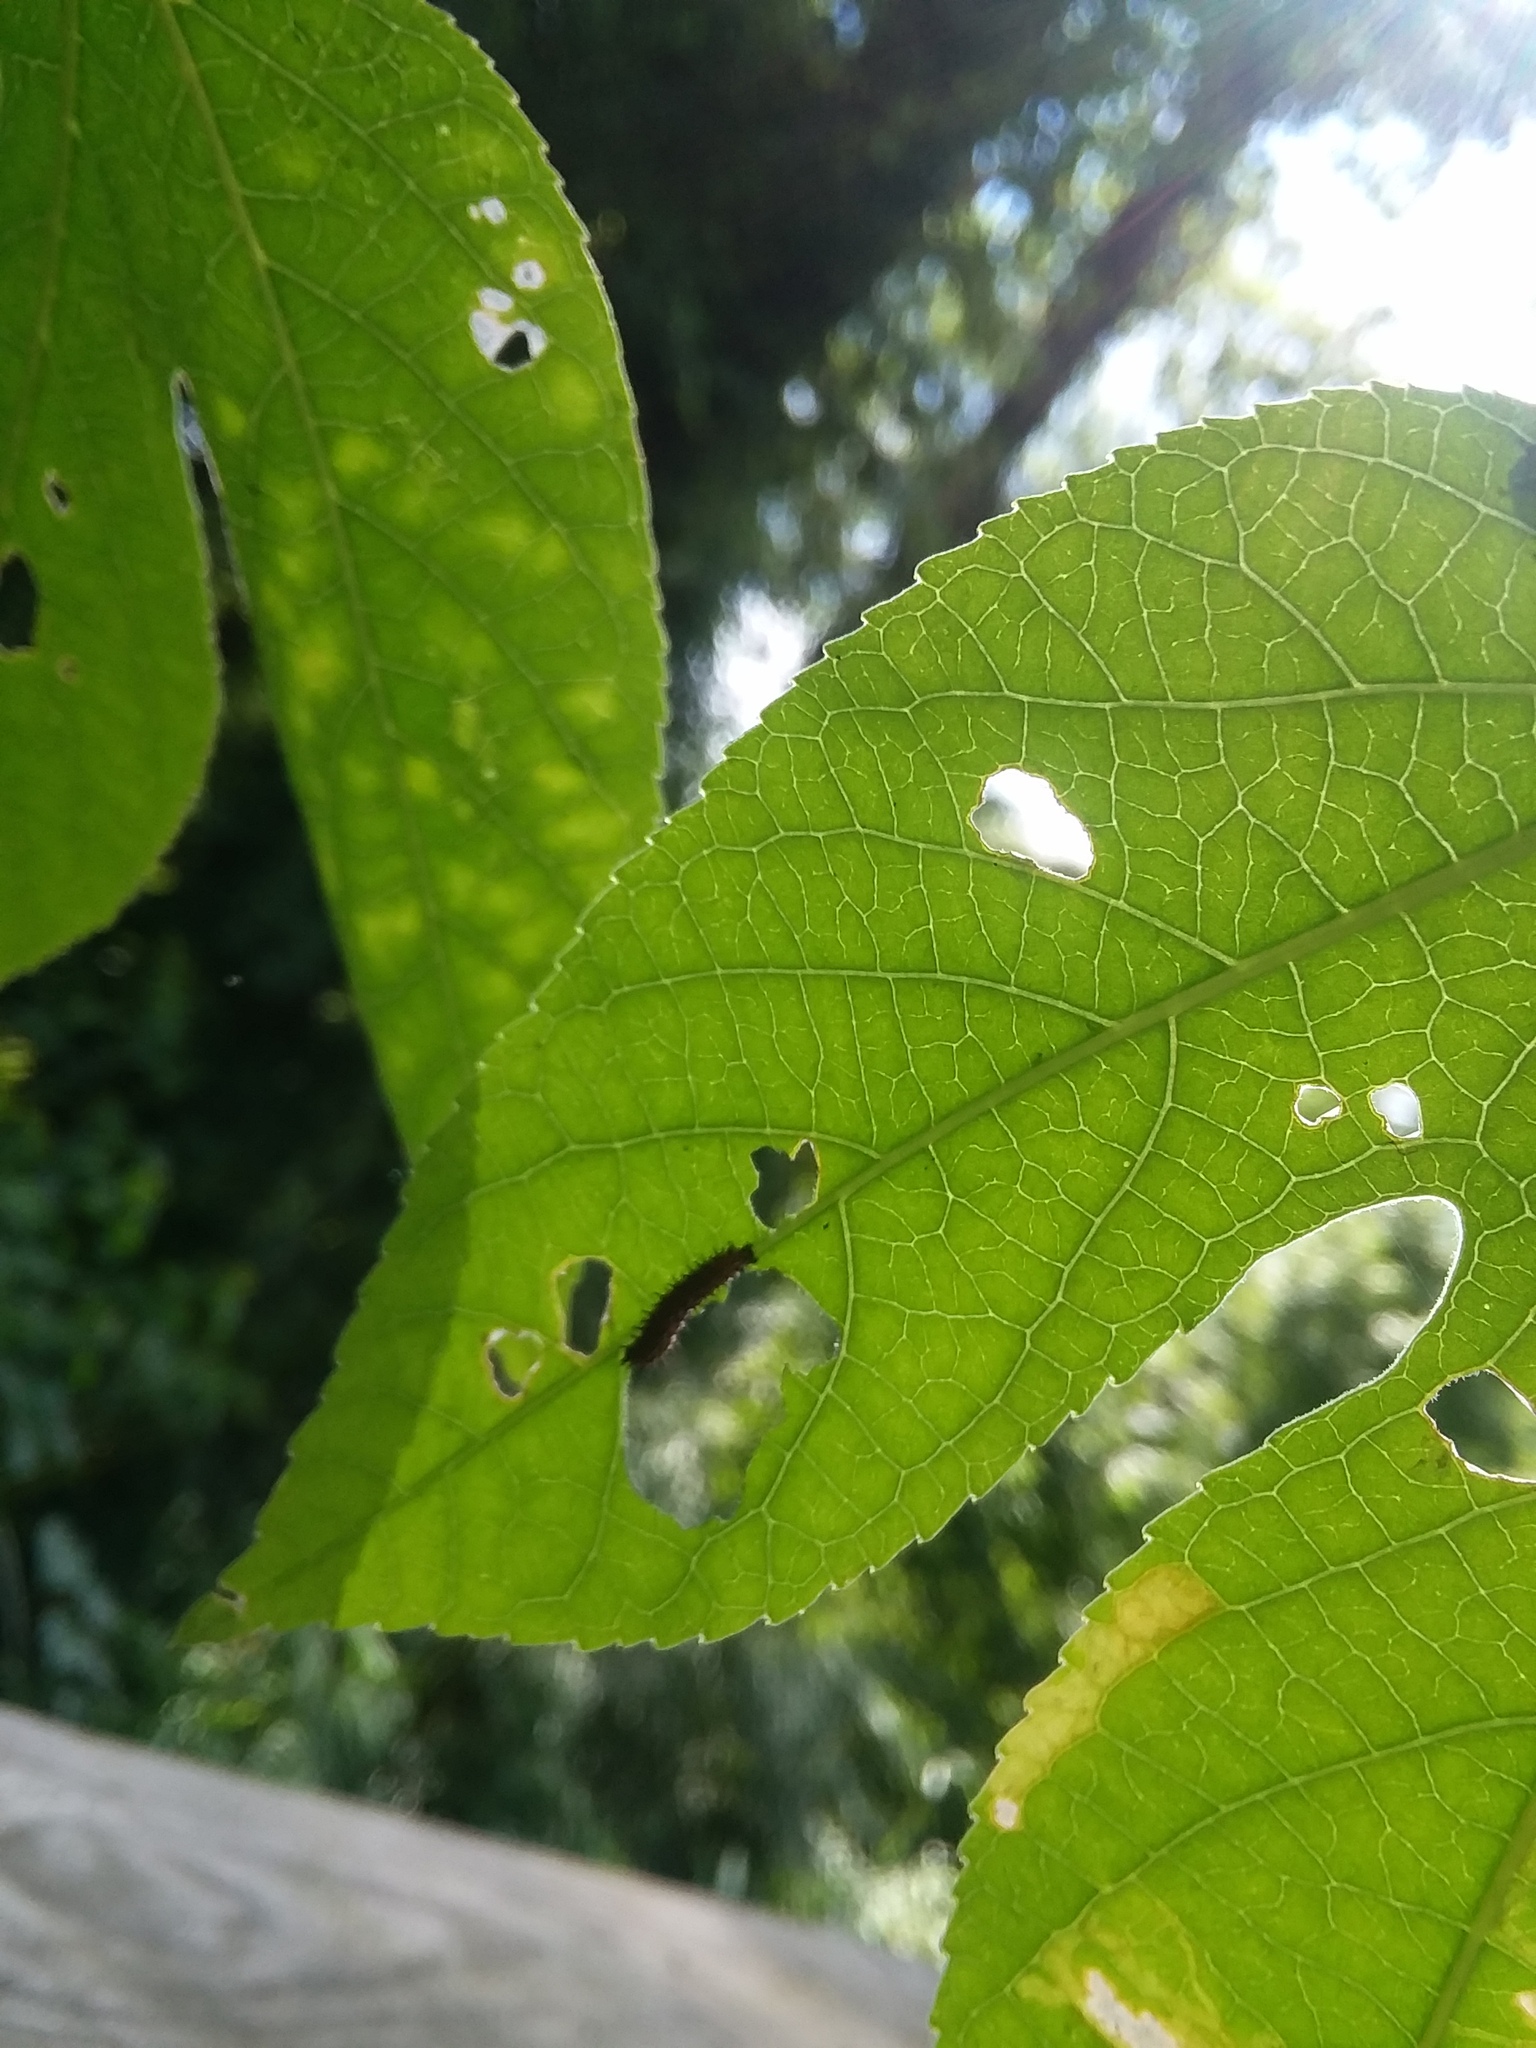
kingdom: Animalia
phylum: Arthropoda
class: Insecta
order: Lepidoptera
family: Nymphalidae
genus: Dione
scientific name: Dione vanillae
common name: Gulf fritillary
